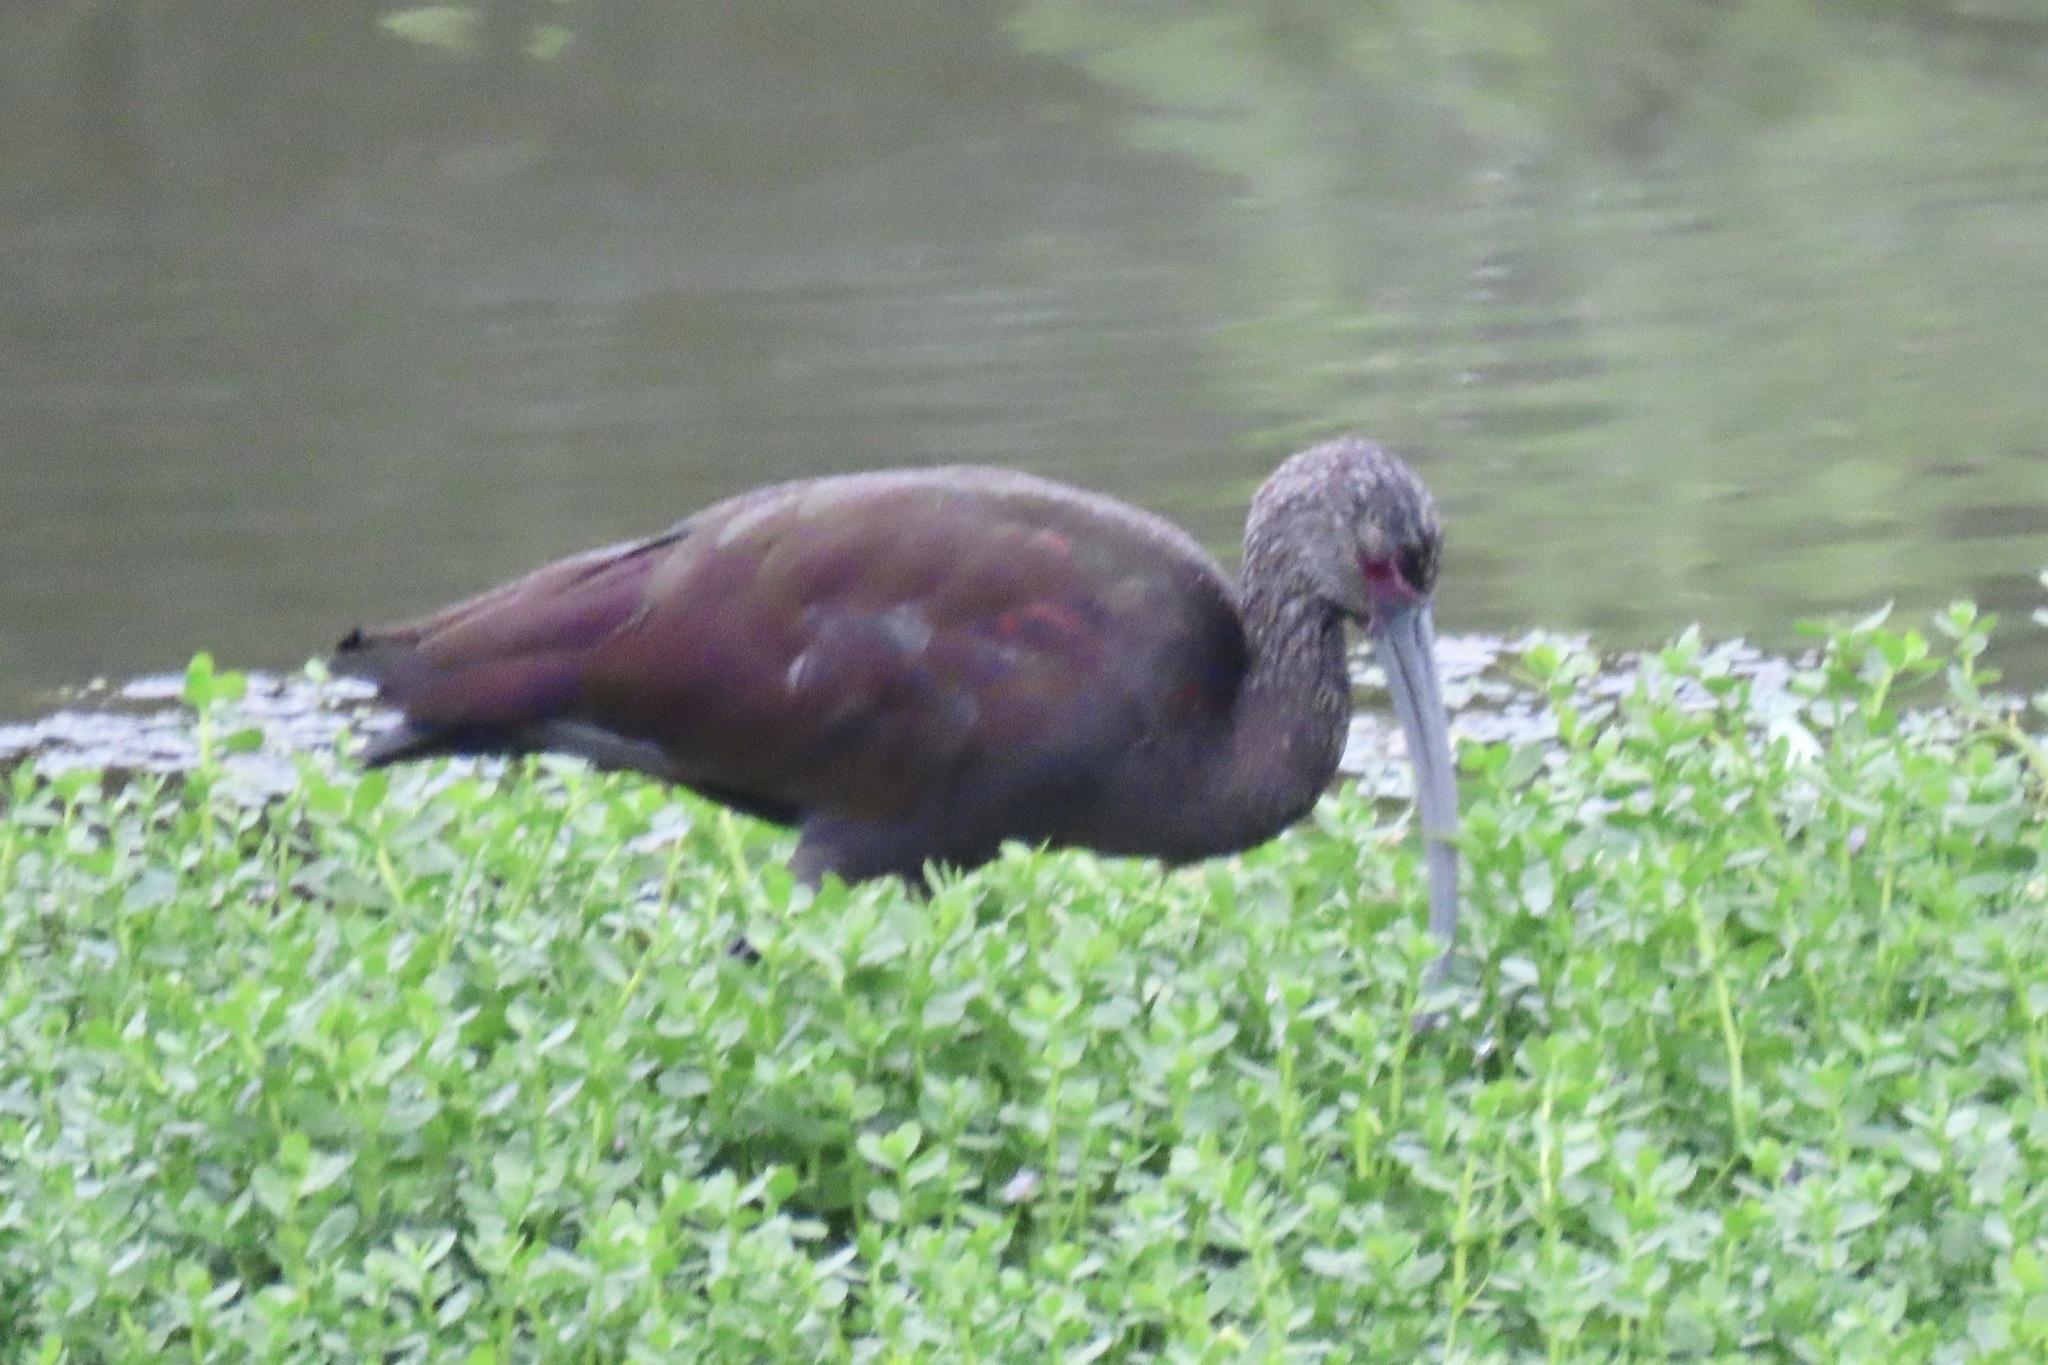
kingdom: Animalia
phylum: Chordata
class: Aves
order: Pelecaniformes
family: Threskiornithidae
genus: Plegadis
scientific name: Plegadis chihi
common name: White-faced ibis
